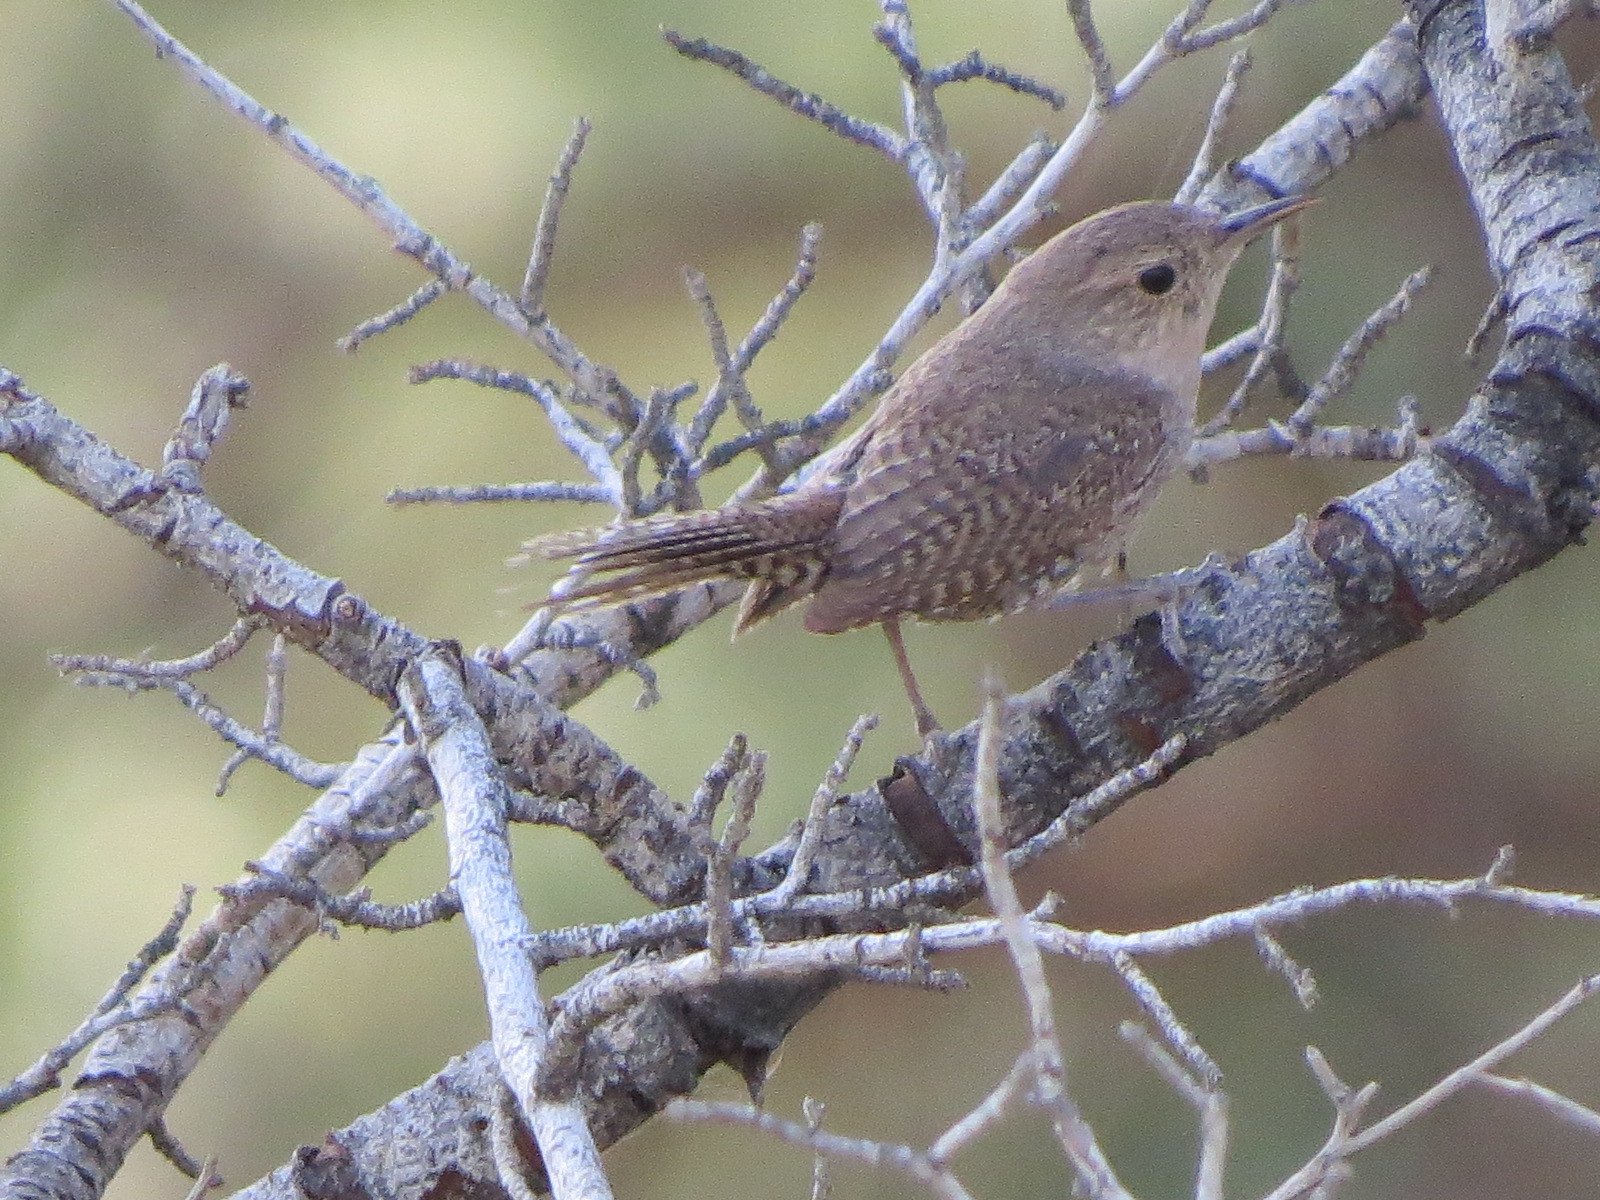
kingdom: Animalia
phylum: Chordata
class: Aves
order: Passeriformes
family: Troglodytidae
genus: Troglodytes
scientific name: Troglodytes aedon
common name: House wren
